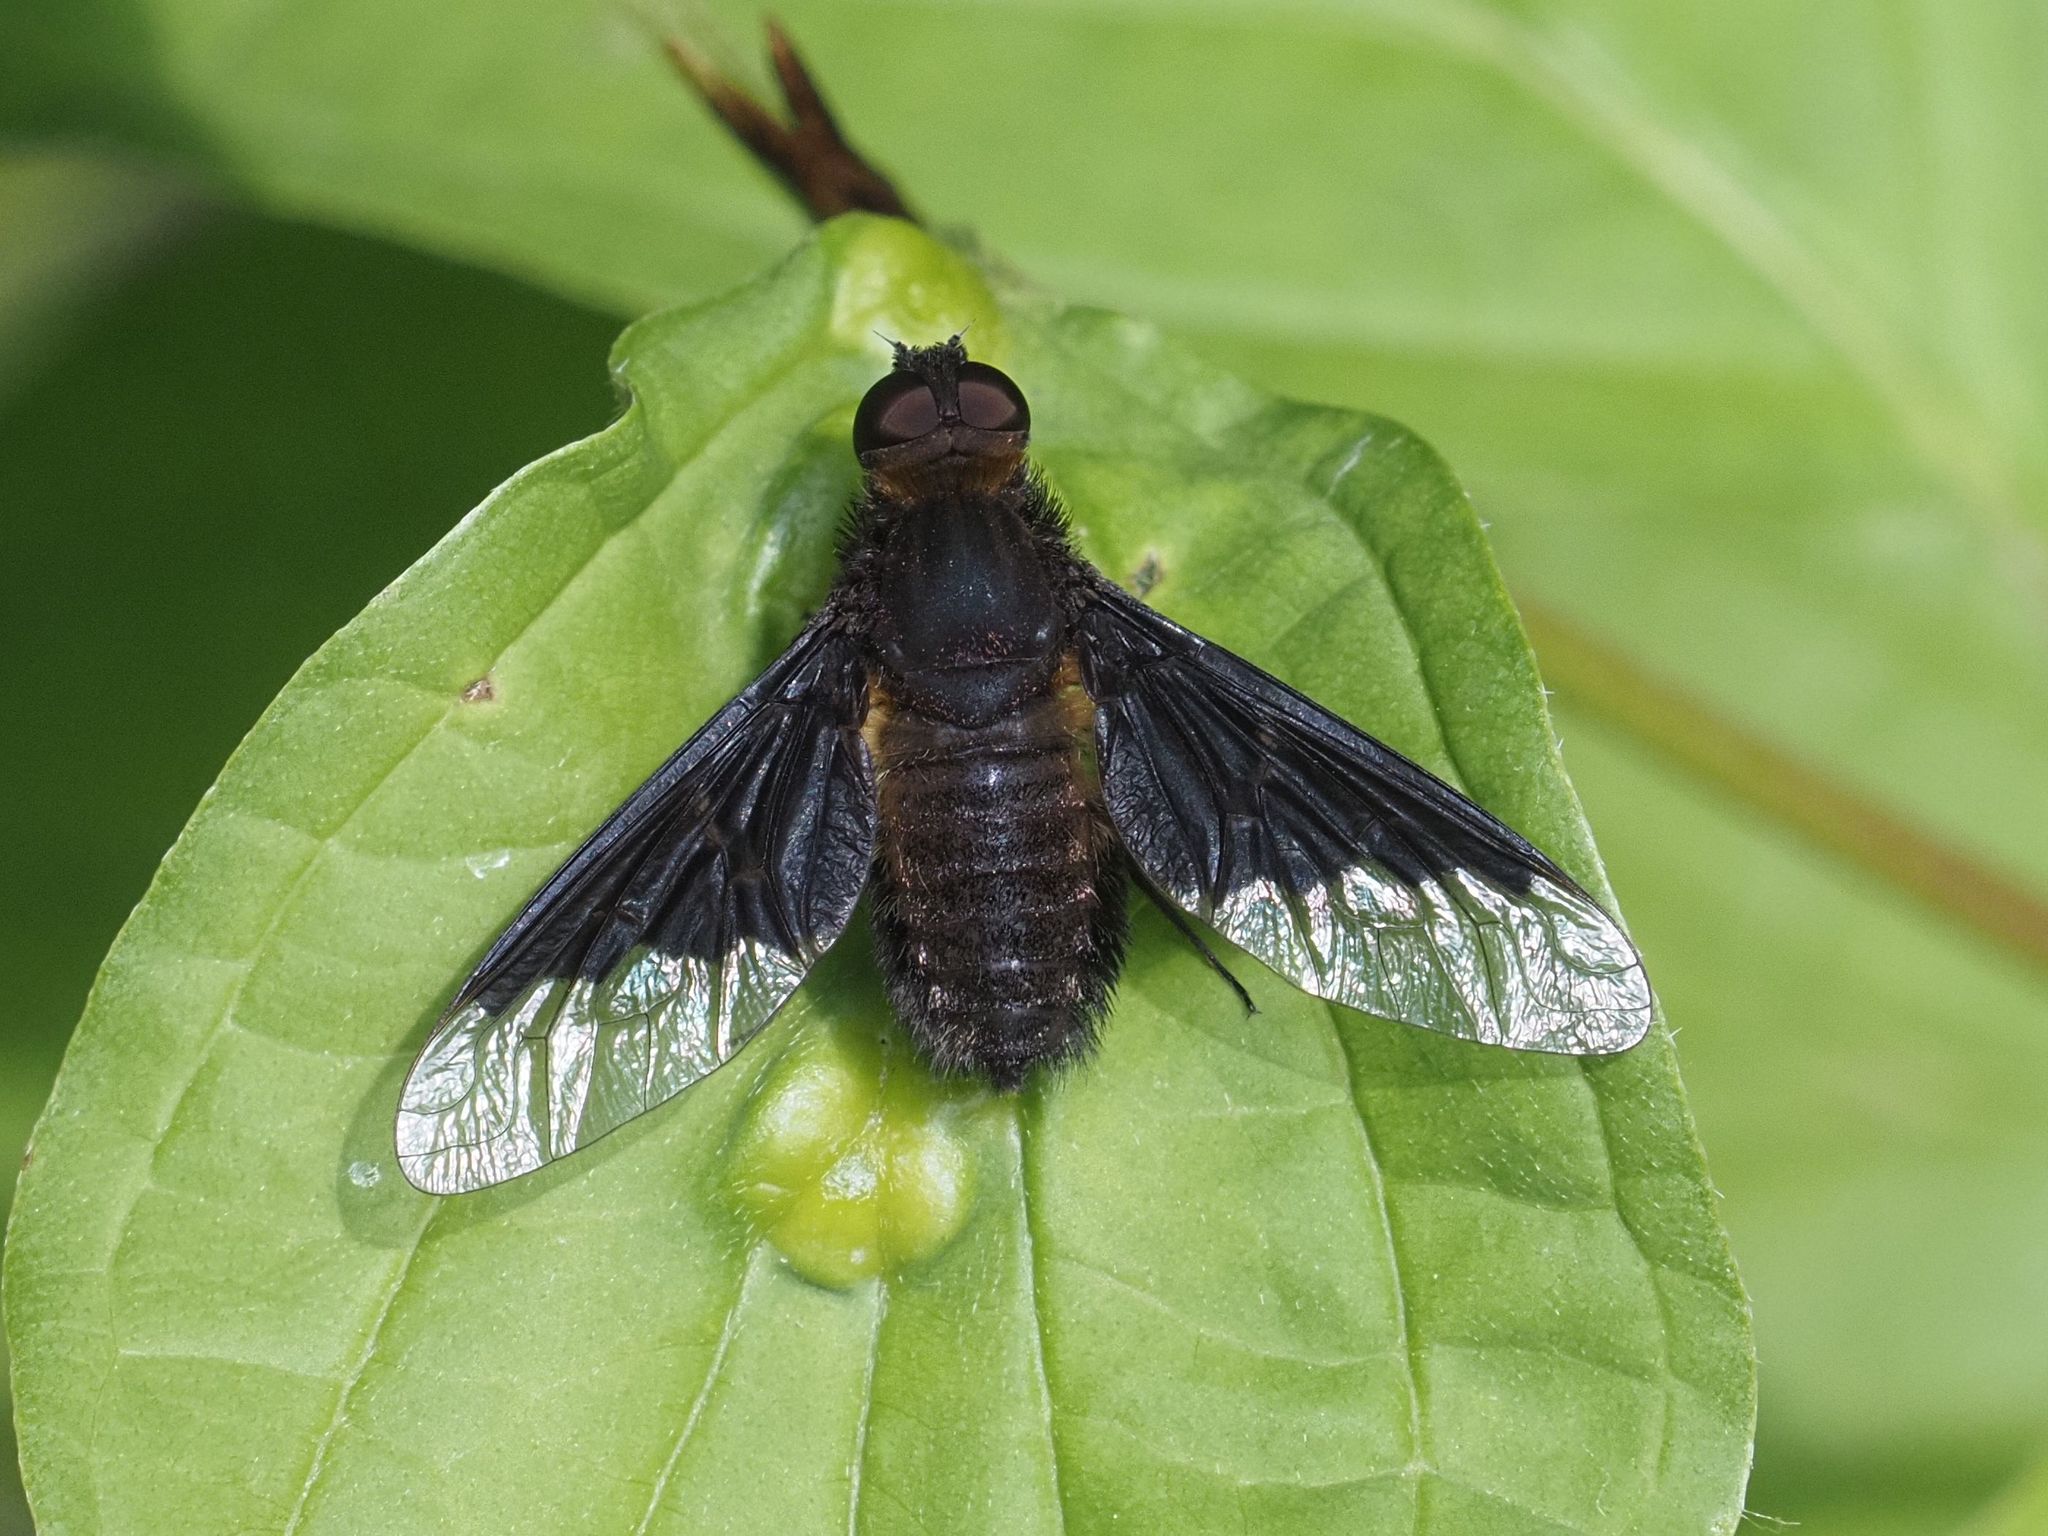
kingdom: Animalia
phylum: Arthropoda
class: Insecta
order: Diptera
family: Bombyliidae
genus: Hemipenthes
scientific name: Hemipenthes morio
